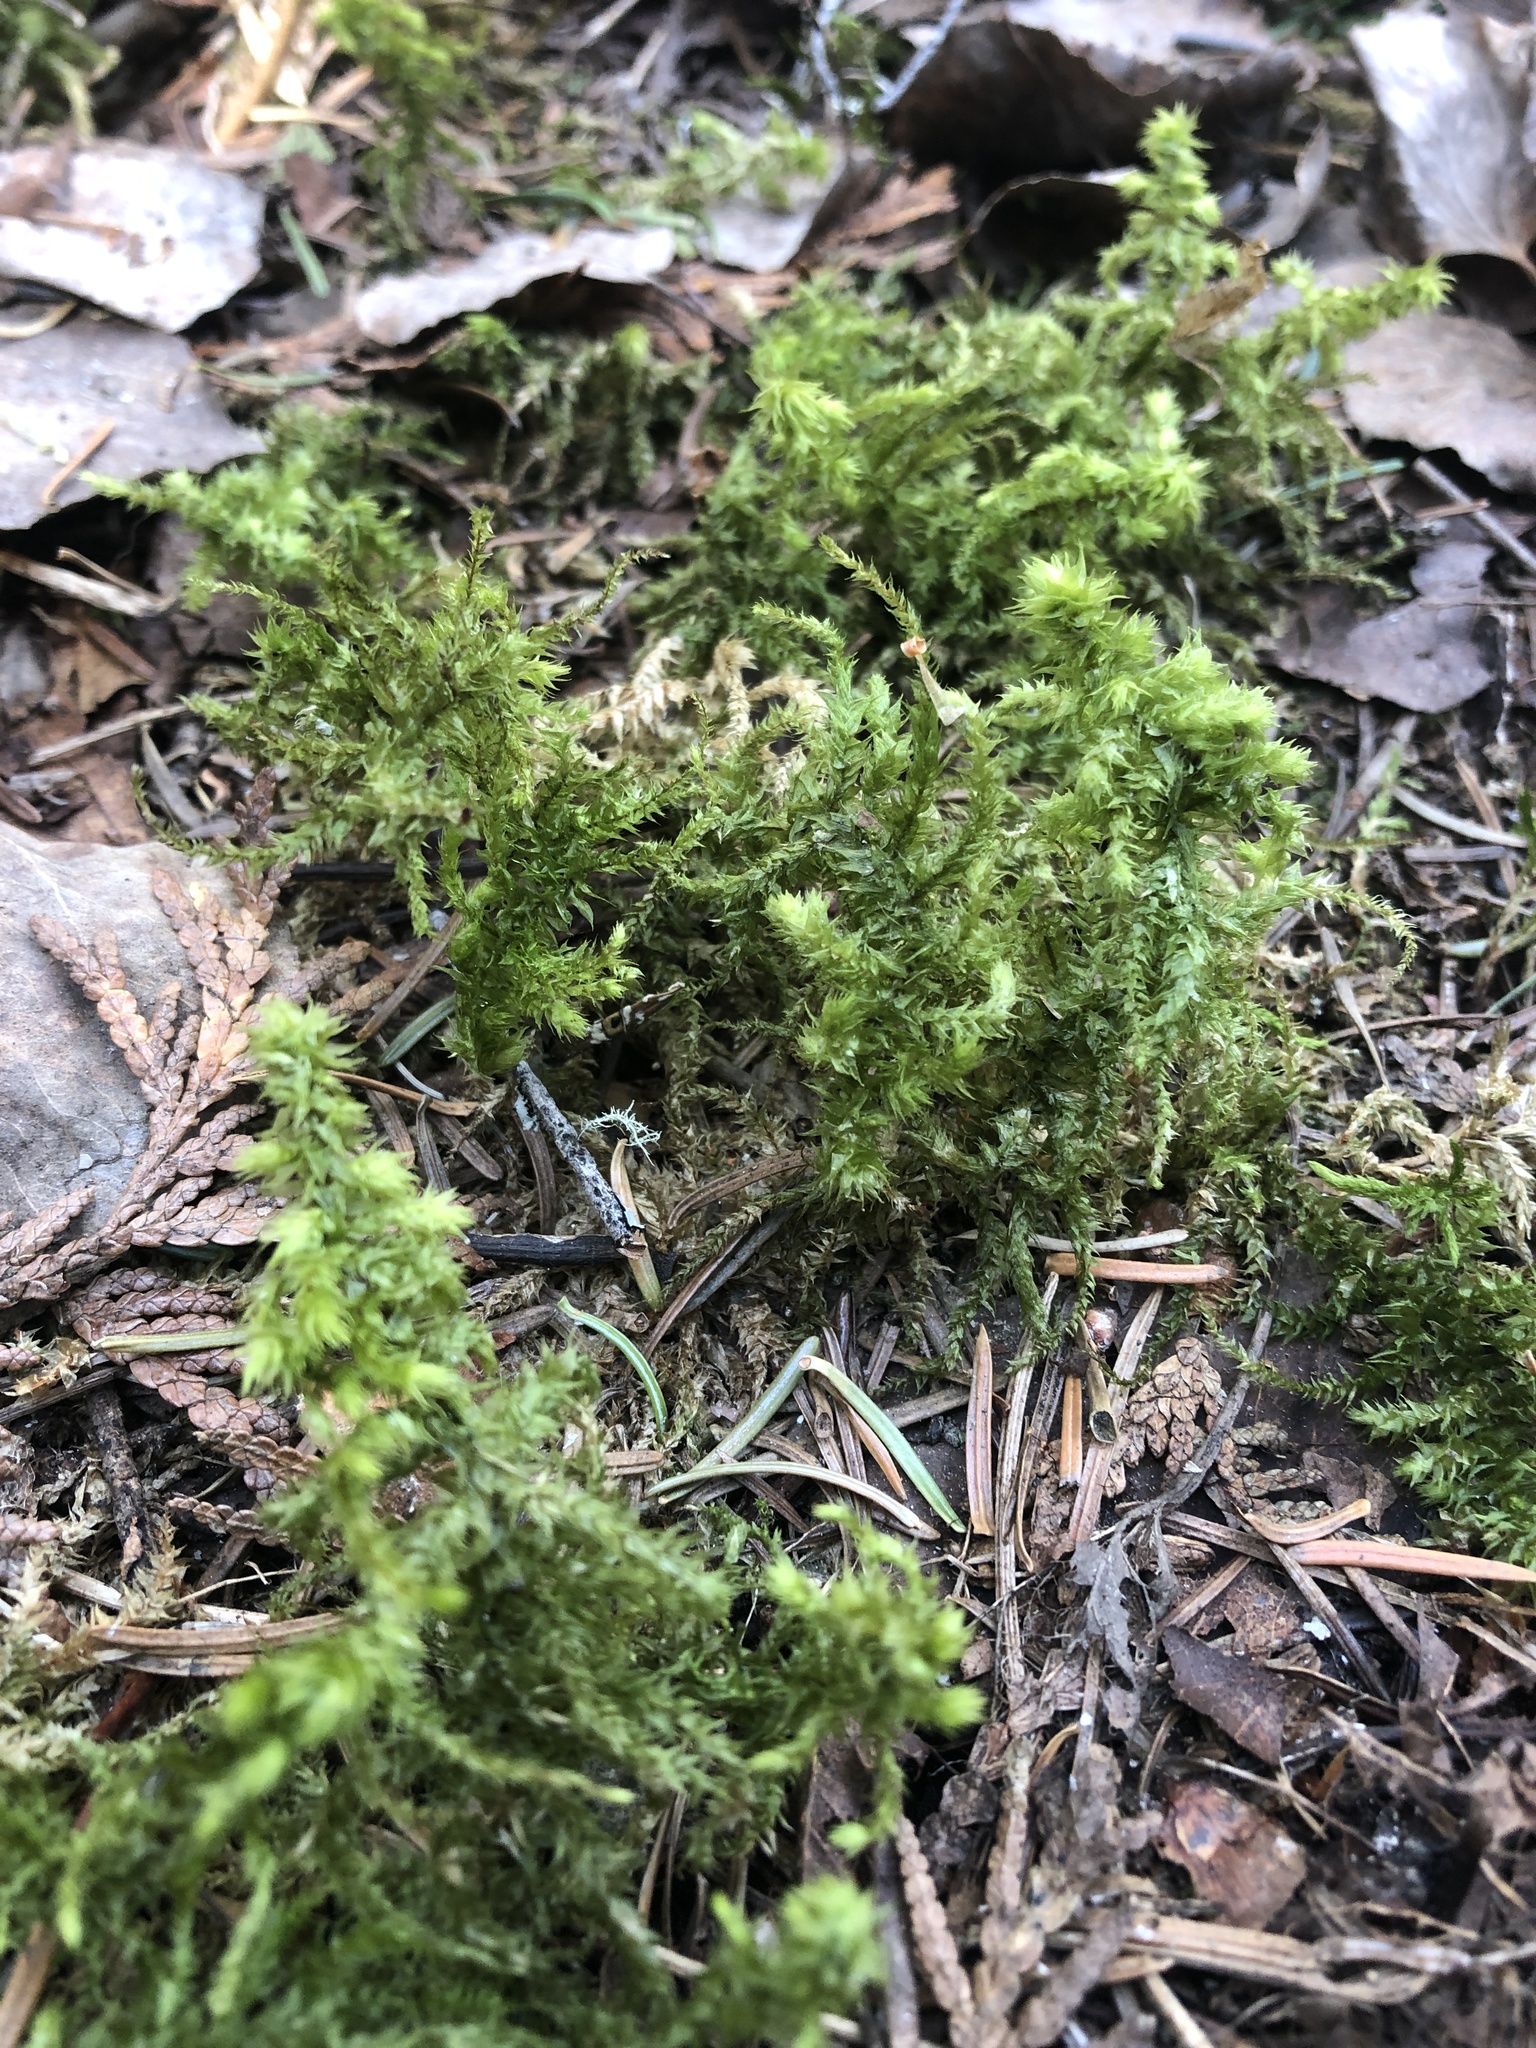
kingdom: Plantae
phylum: Bryophyta
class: Bryopsida
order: Hypnales
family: Hylocomiaceae
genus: Hylocomiadelphus
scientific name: Hylocomiadelphus triquetrus
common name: Rough goose neck moss
